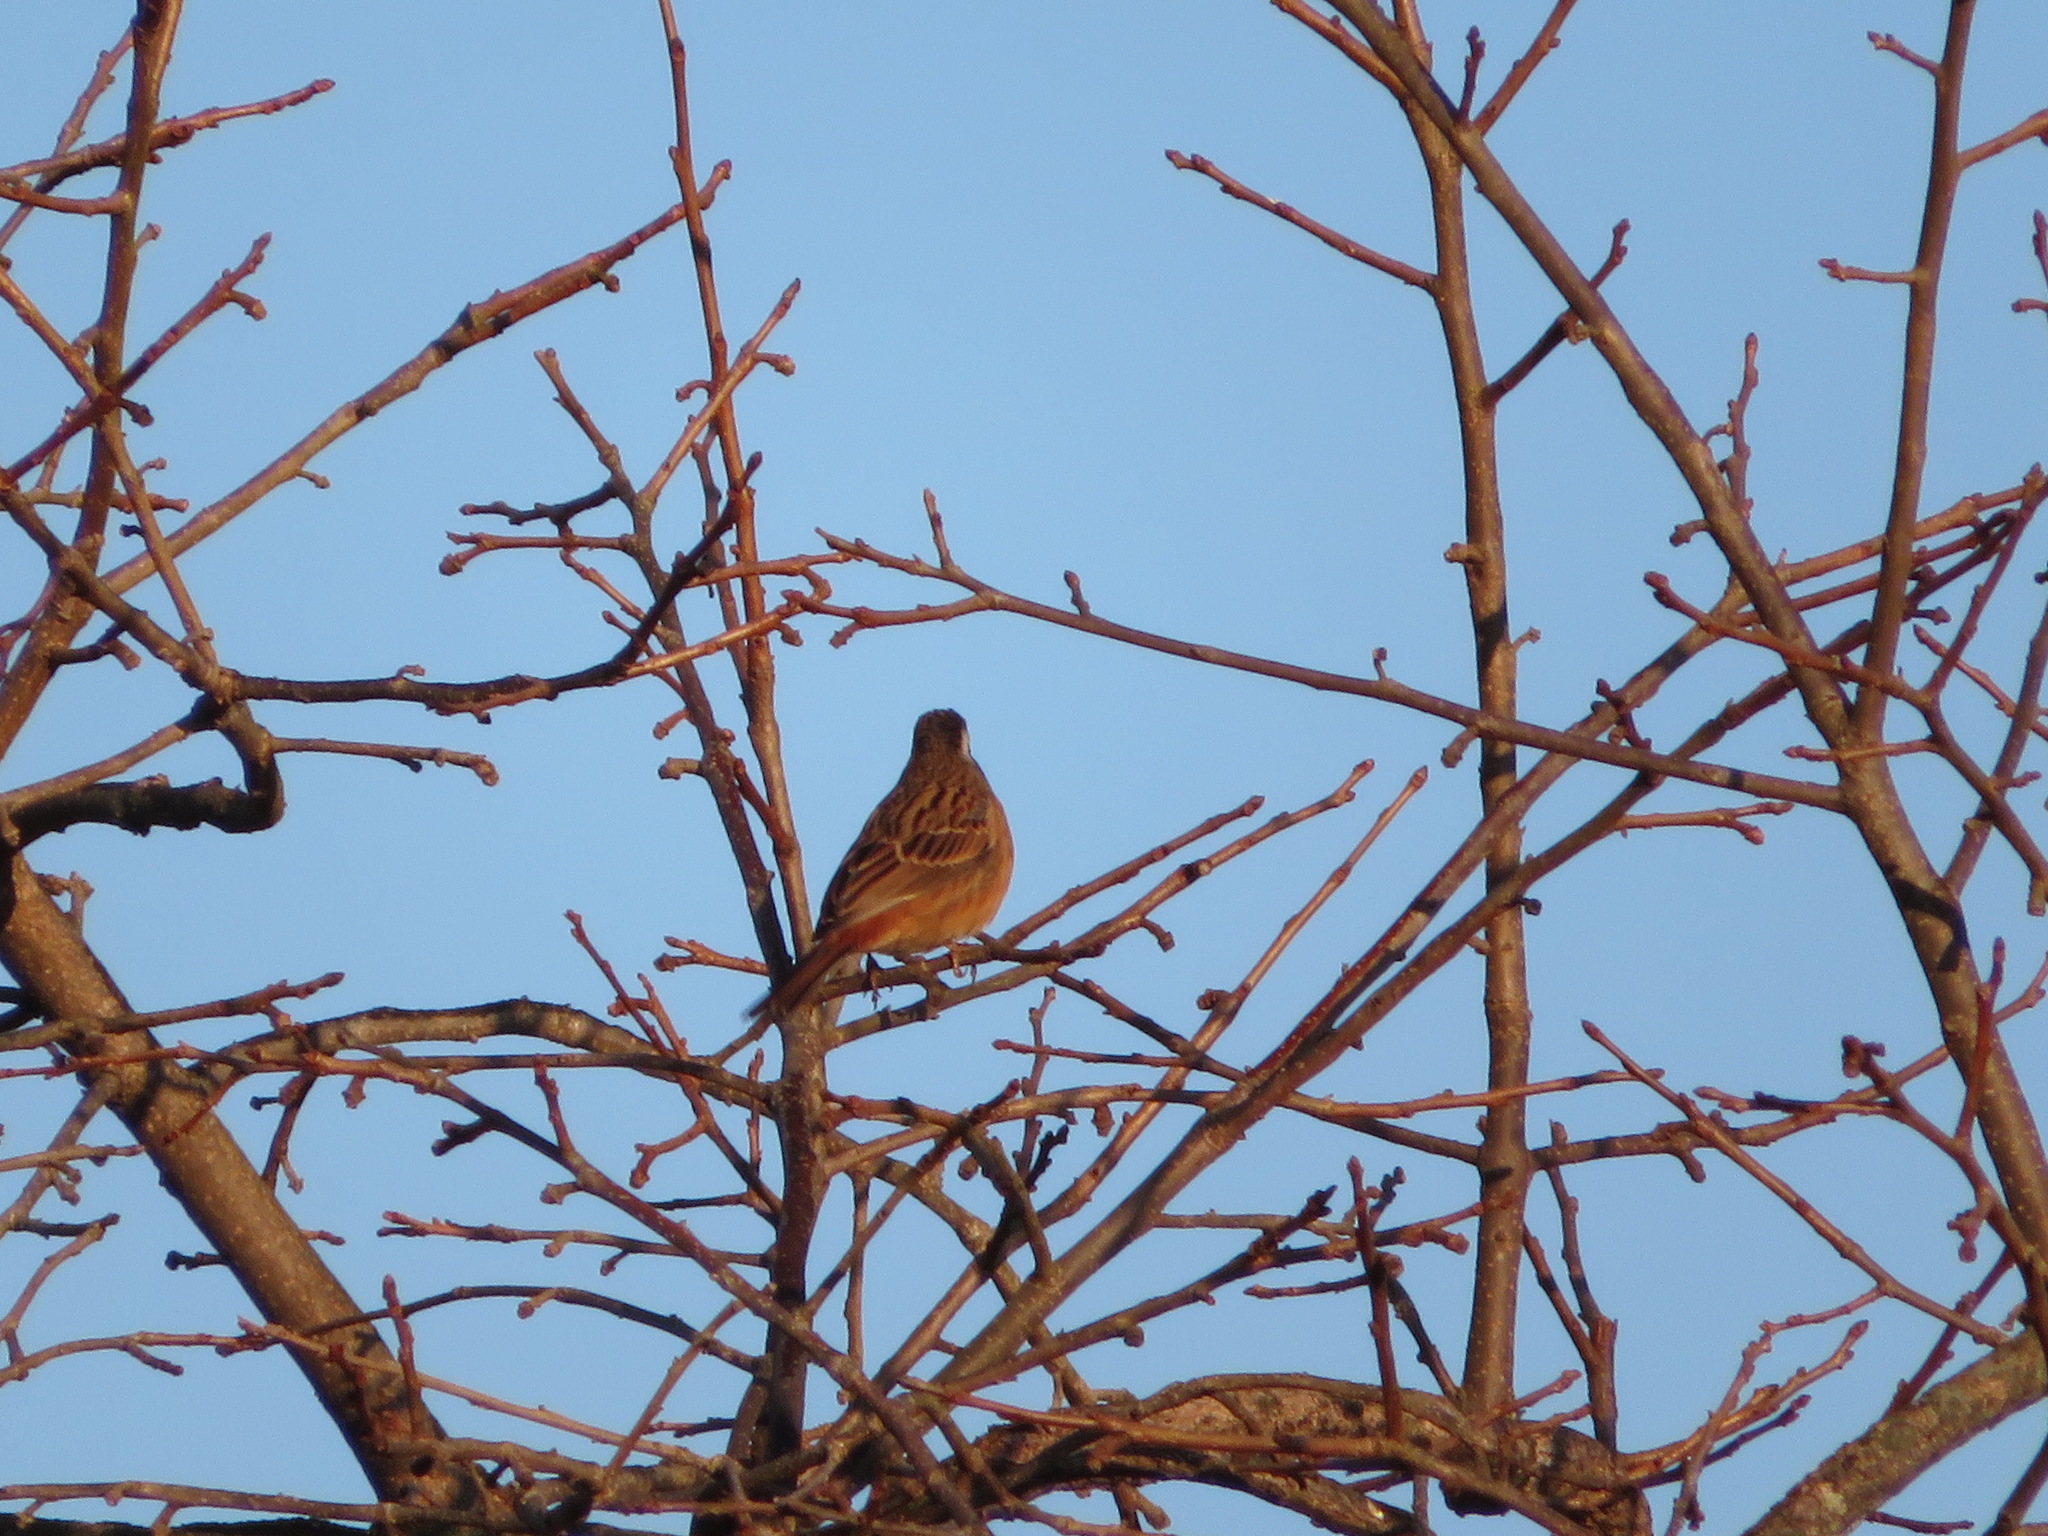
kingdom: Animalia
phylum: Chordata
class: Aves
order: Passeriformes
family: Emberizidae
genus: Emberiza
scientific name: Emberiza cioides
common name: Meadow bunting
